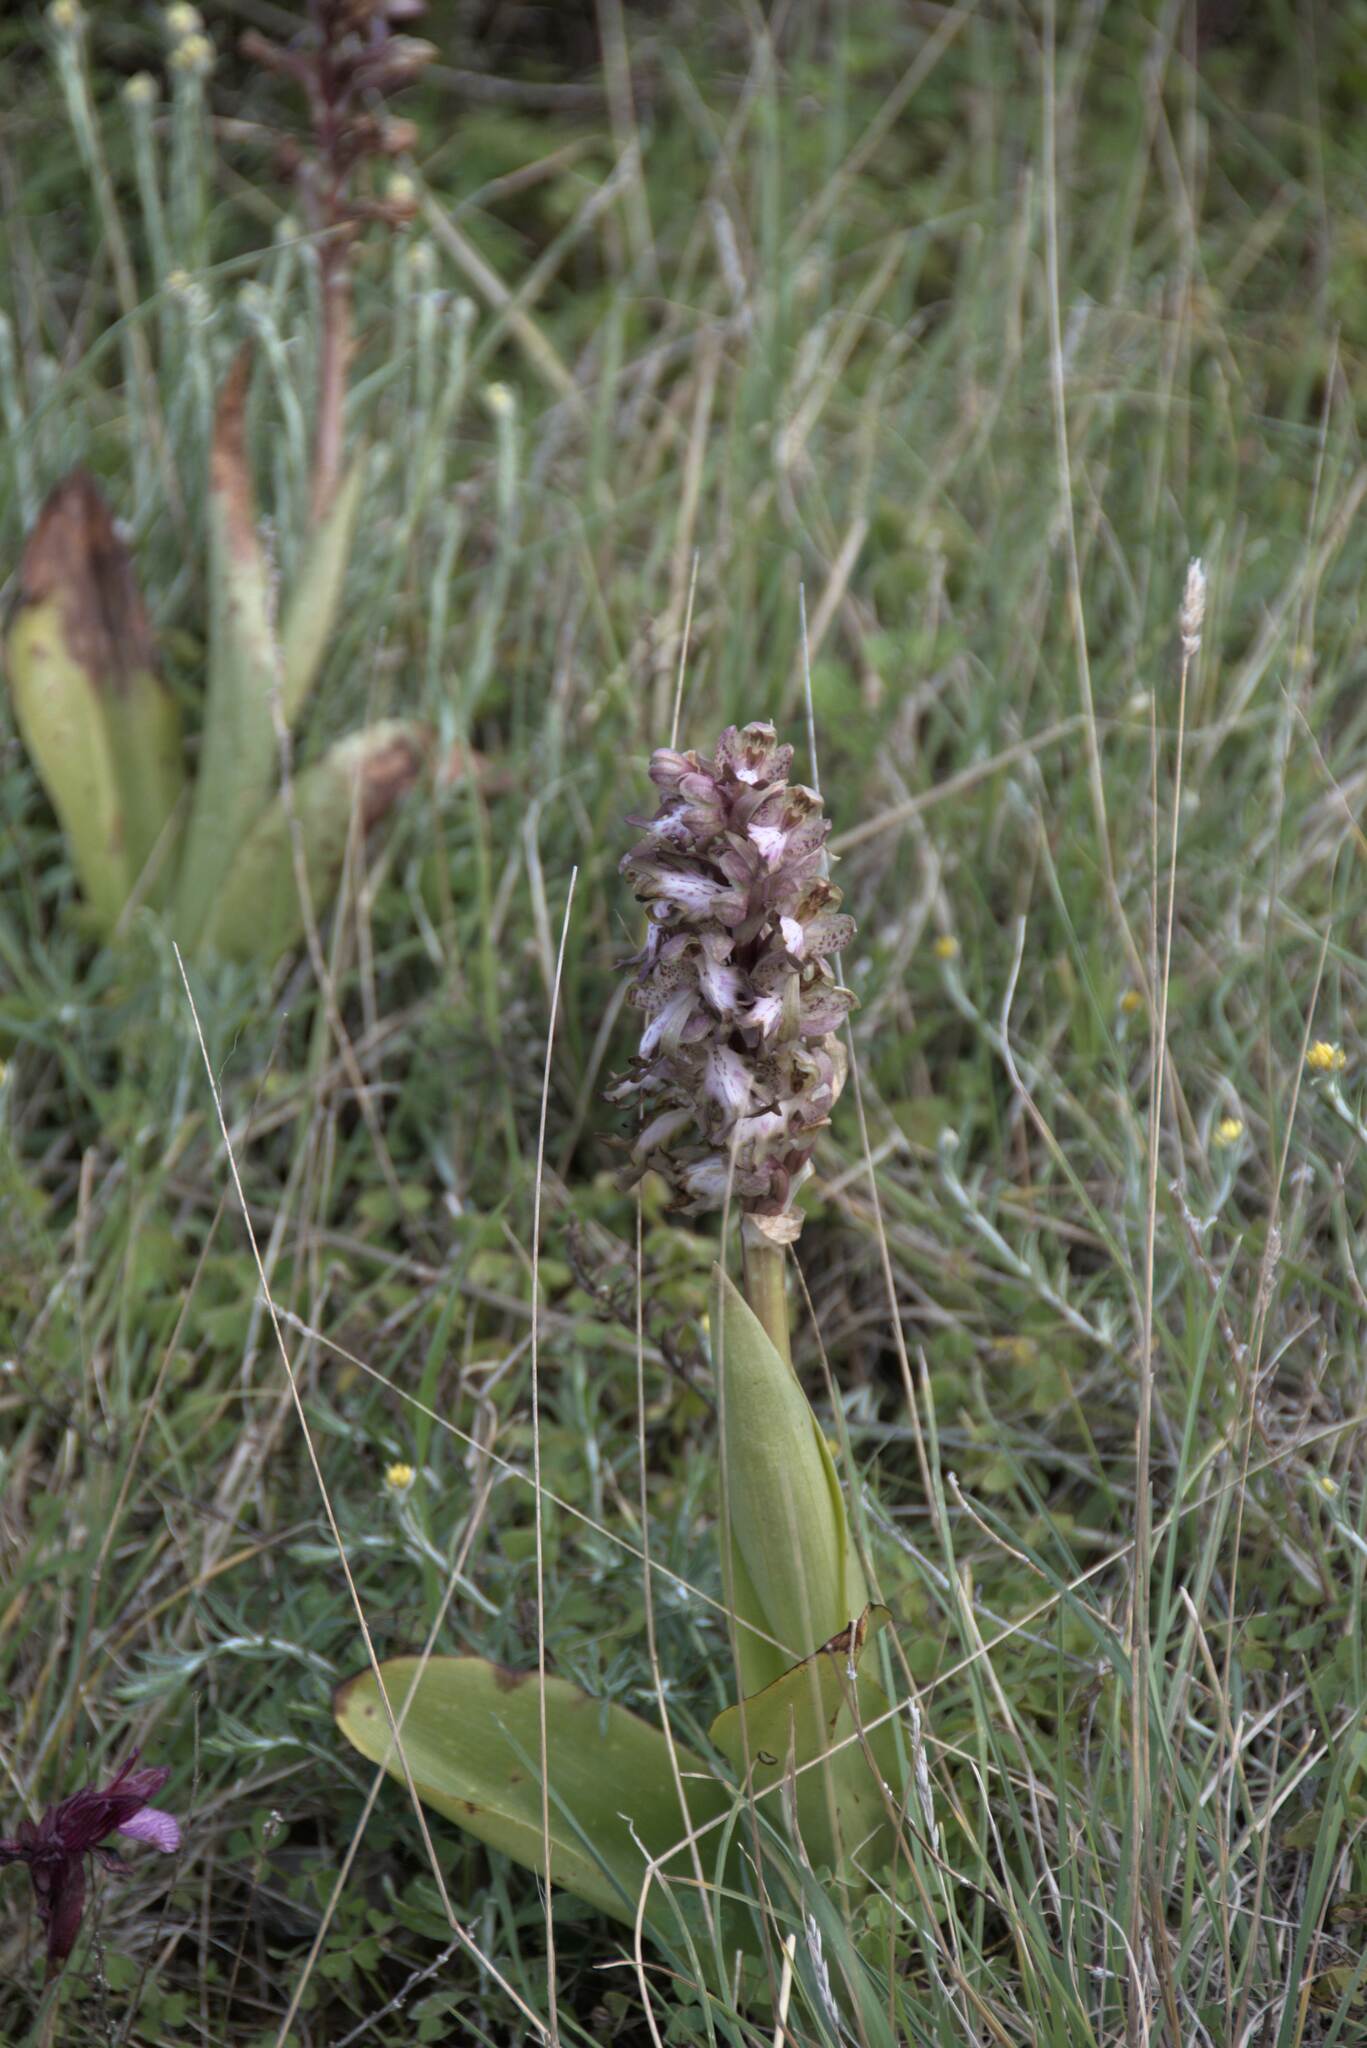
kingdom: Plantae
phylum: Tracheophyta
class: Liliopsida
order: Asparagales
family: Orchidaceae
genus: Himantoglossum
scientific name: Himantoglossum robertianum
